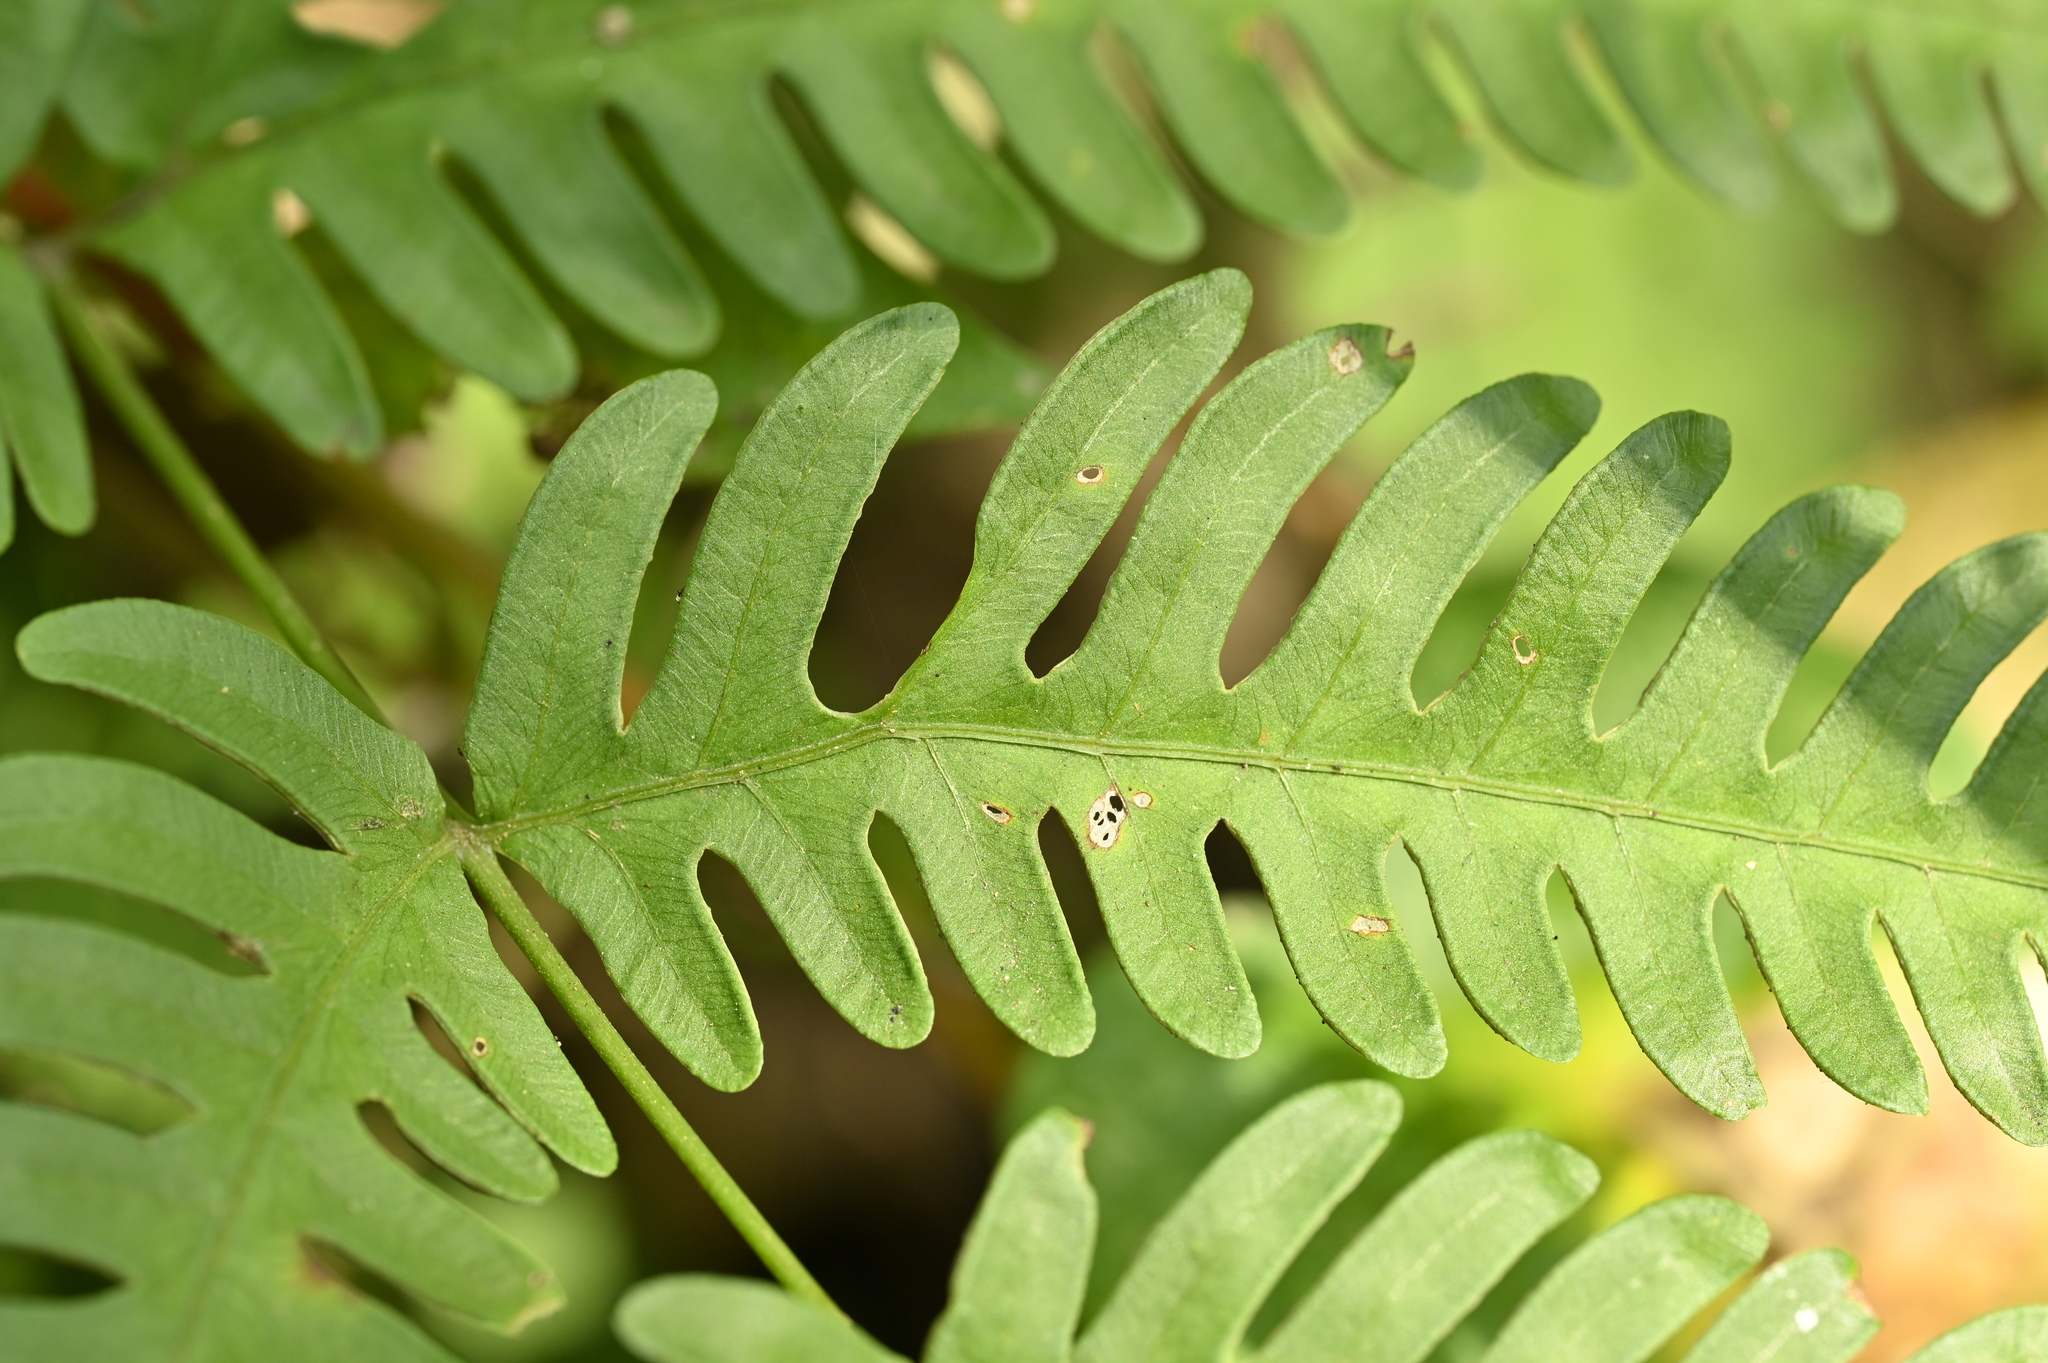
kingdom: Plantae
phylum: Tracheophyta
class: Polypodiopsida
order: Polypodiales
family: Pteridaceae
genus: Pteris
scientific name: Pteris biaurita
